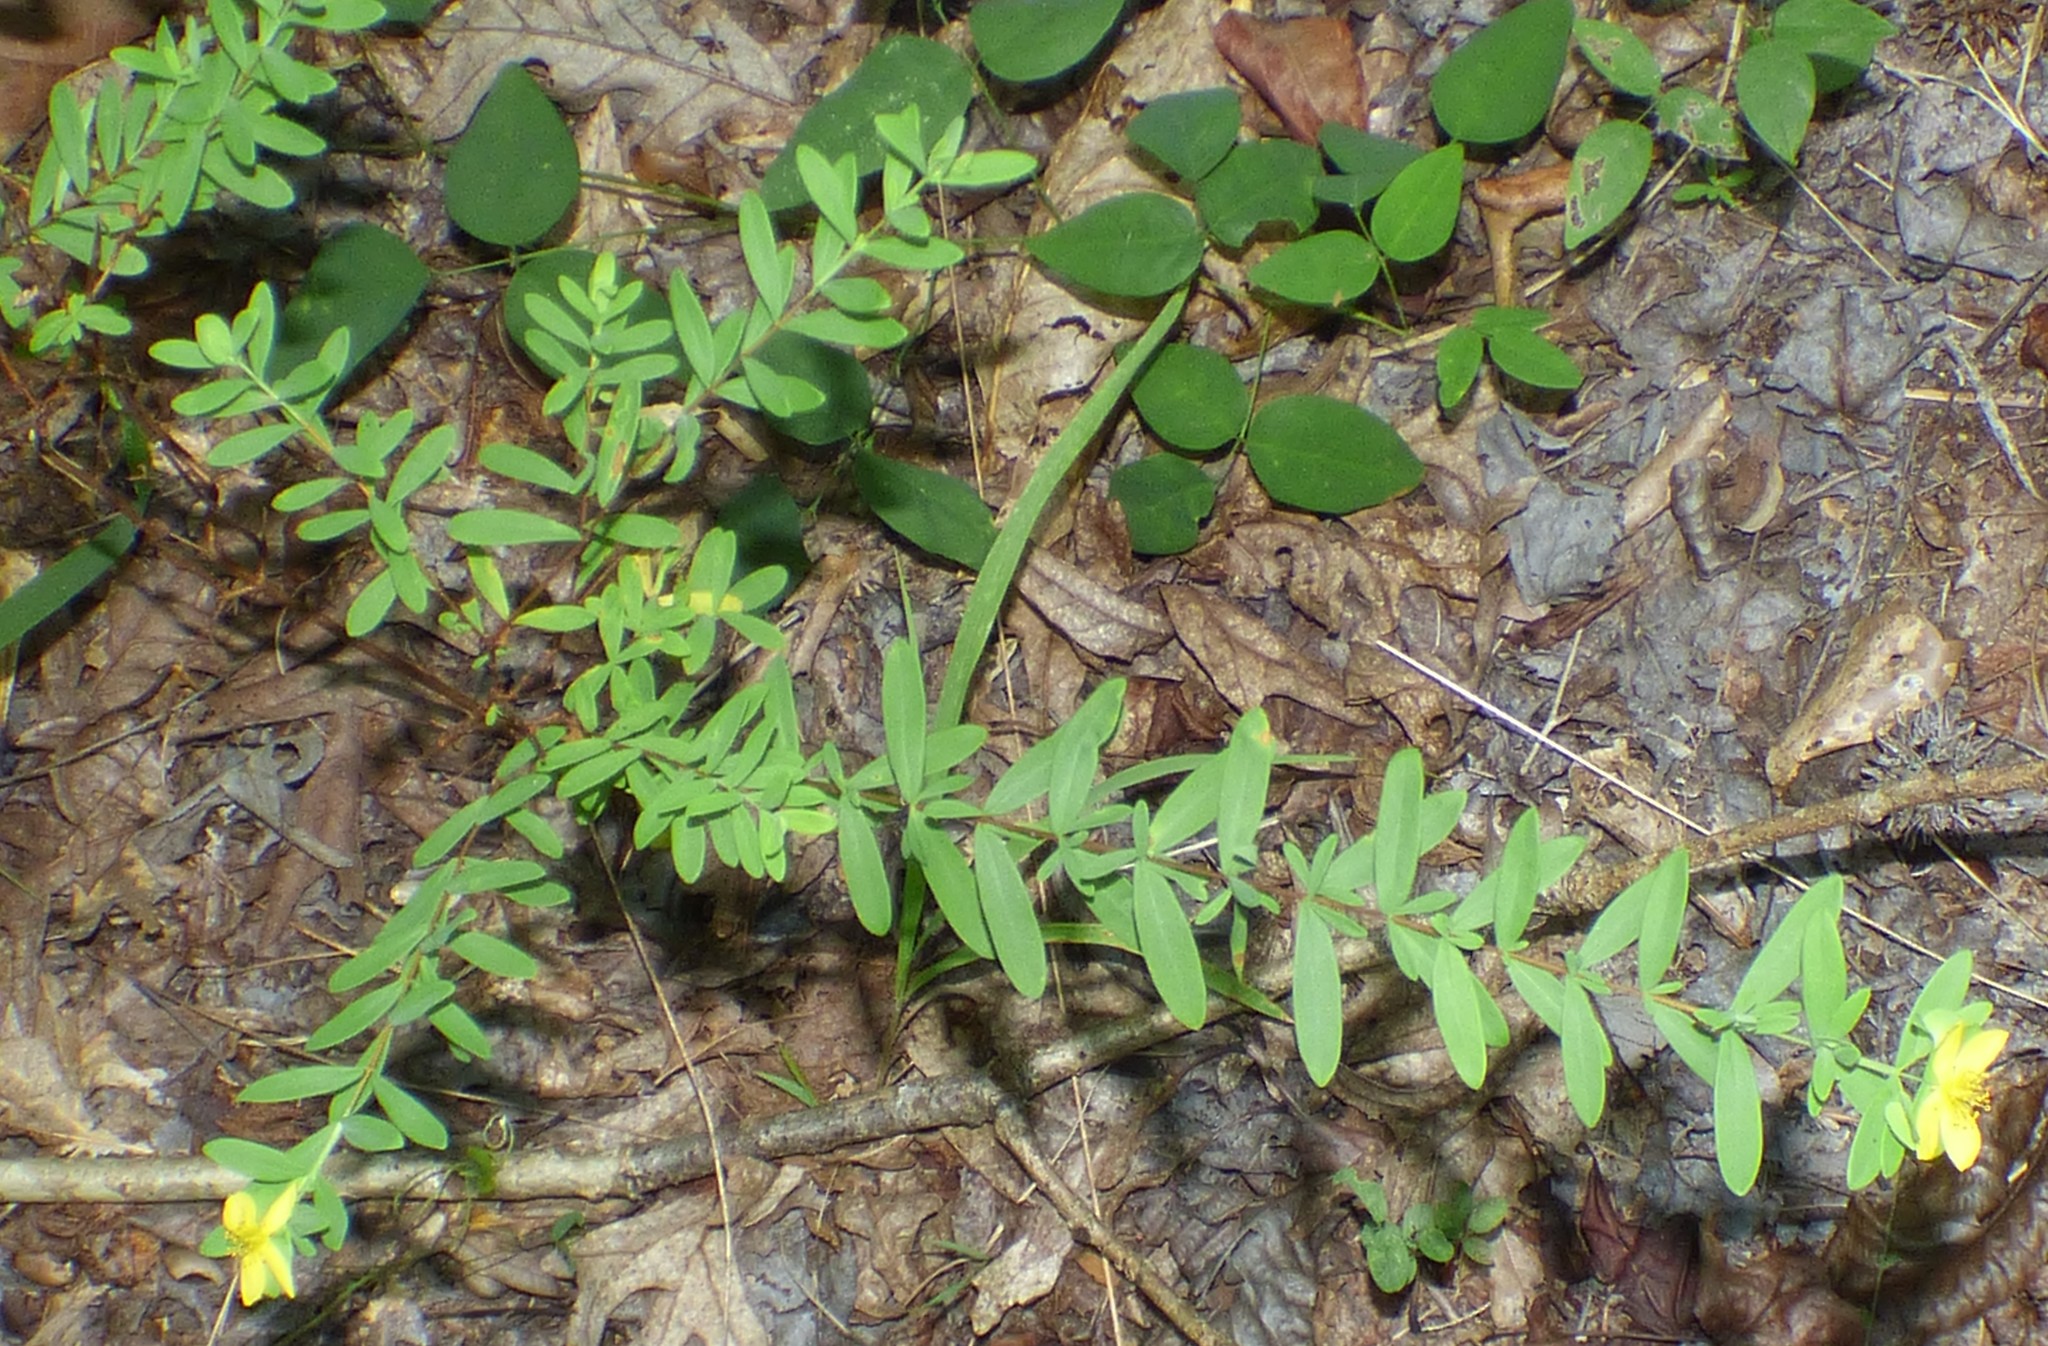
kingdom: Plantae
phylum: Tracheophyta
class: Magnoliopsida
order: Malpighiales
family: Hypericaceae
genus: Hypericum
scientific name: Hypericum hypericoides
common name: St. andrew's cross
